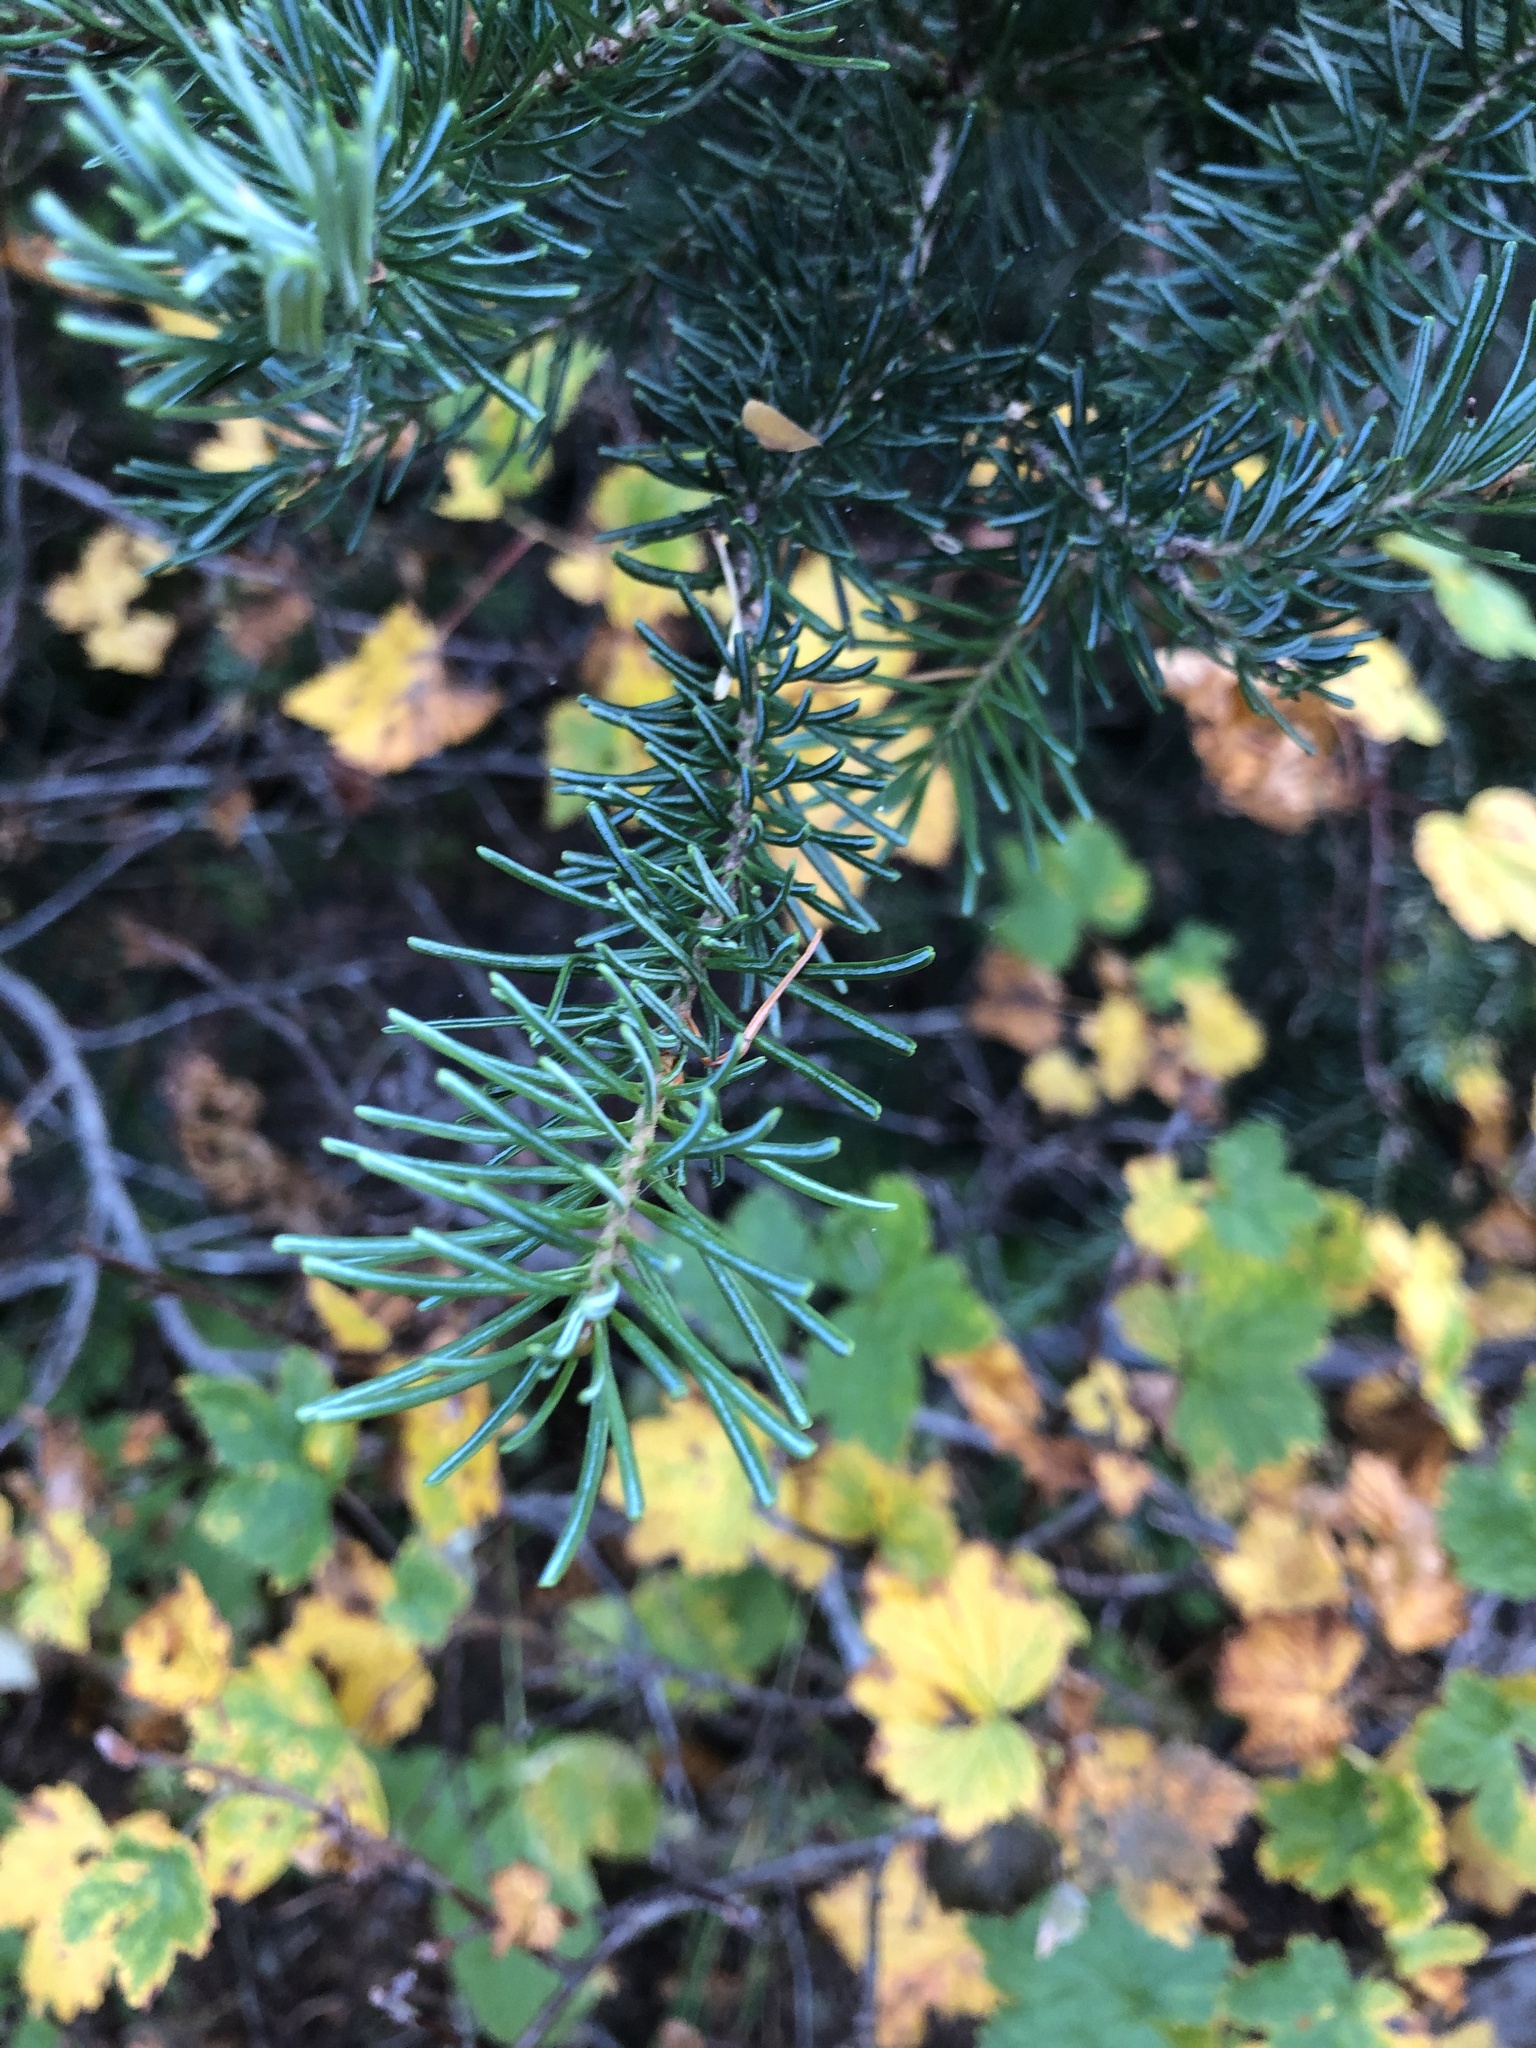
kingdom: Plantae
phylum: Tracheophyta
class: Pinopsida
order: Pinales
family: Pinaceae
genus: Abies
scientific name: Abies lasiocarpa
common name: Subalpine fir
